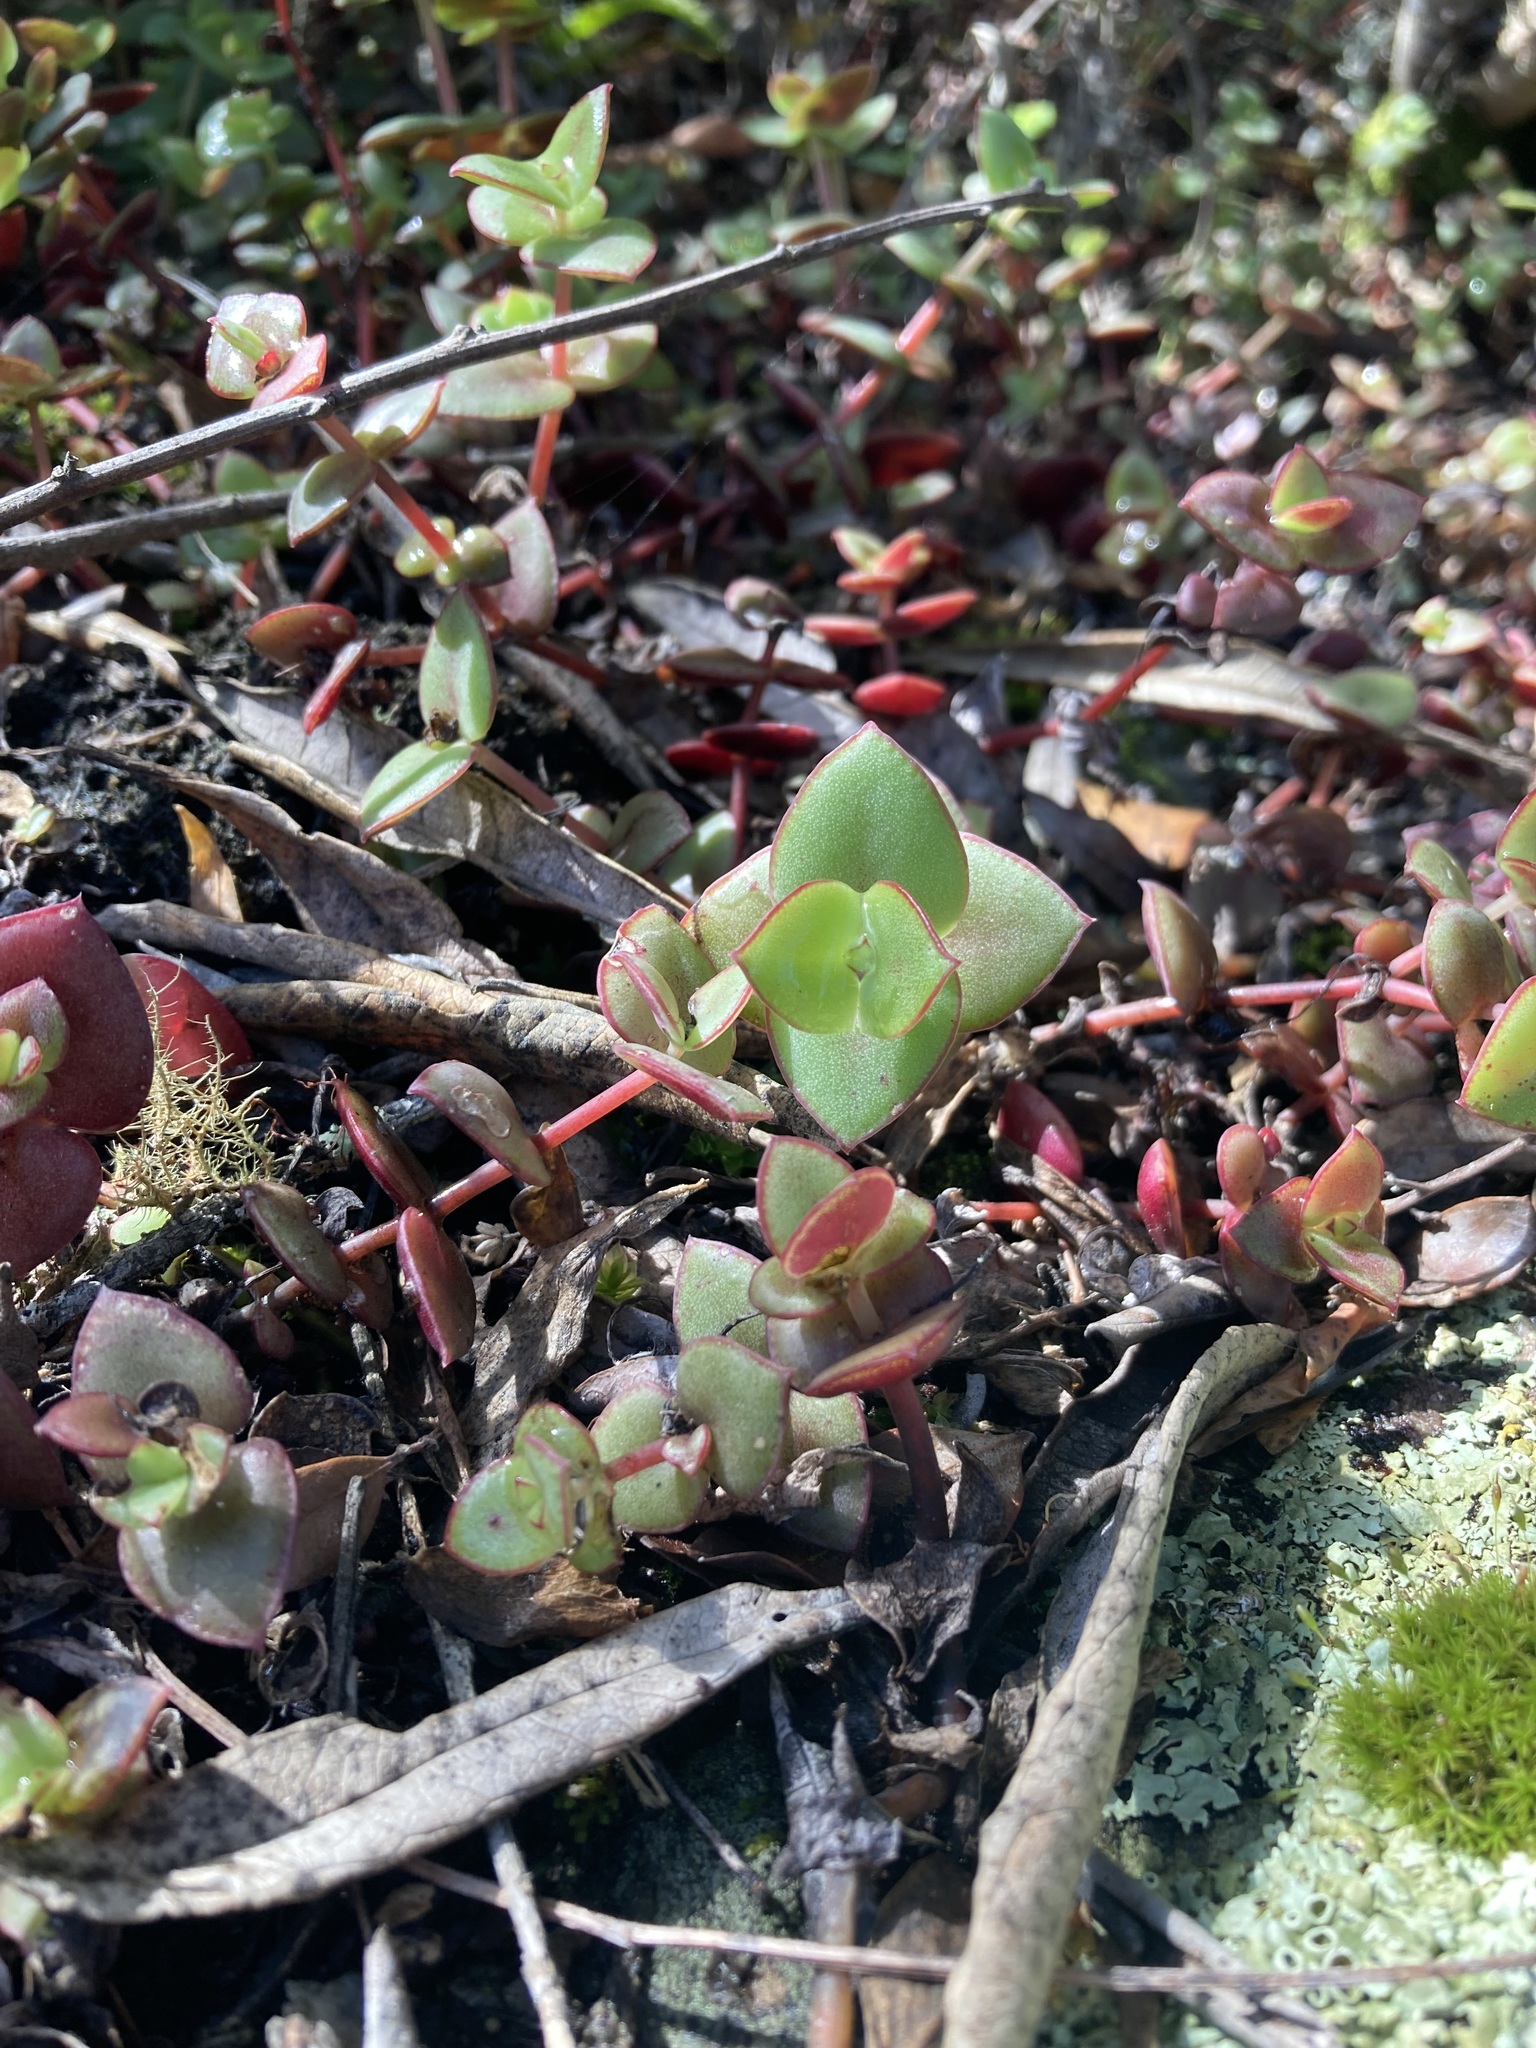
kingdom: Plantae
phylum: Tracheophyta
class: Magnoliopsida
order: Saxifragales
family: Crassulaceae
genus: Crassula
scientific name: Crassula pellucida
